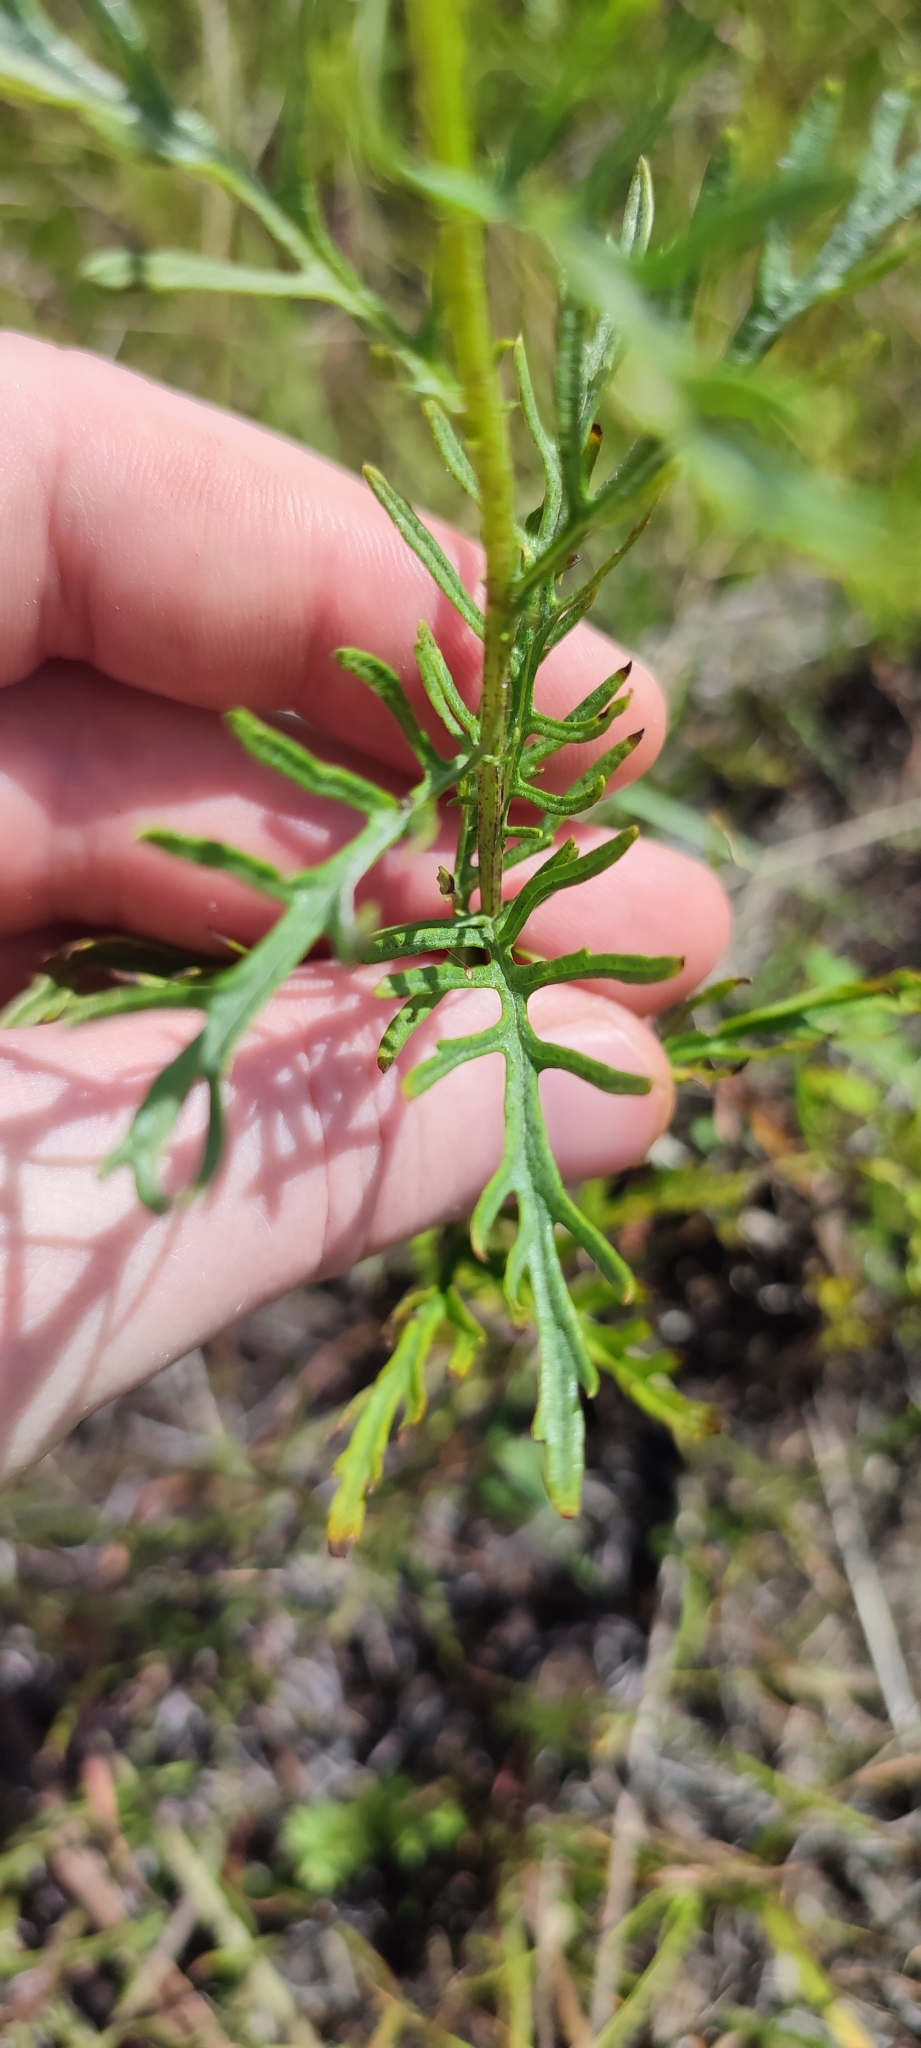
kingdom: Plantae
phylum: Tracheophyta
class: Magnoliopsida
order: Asterales
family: Asteraceae
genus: Jacobaea
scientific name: Jacobaea erucifolia
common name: Hoary ragwort
